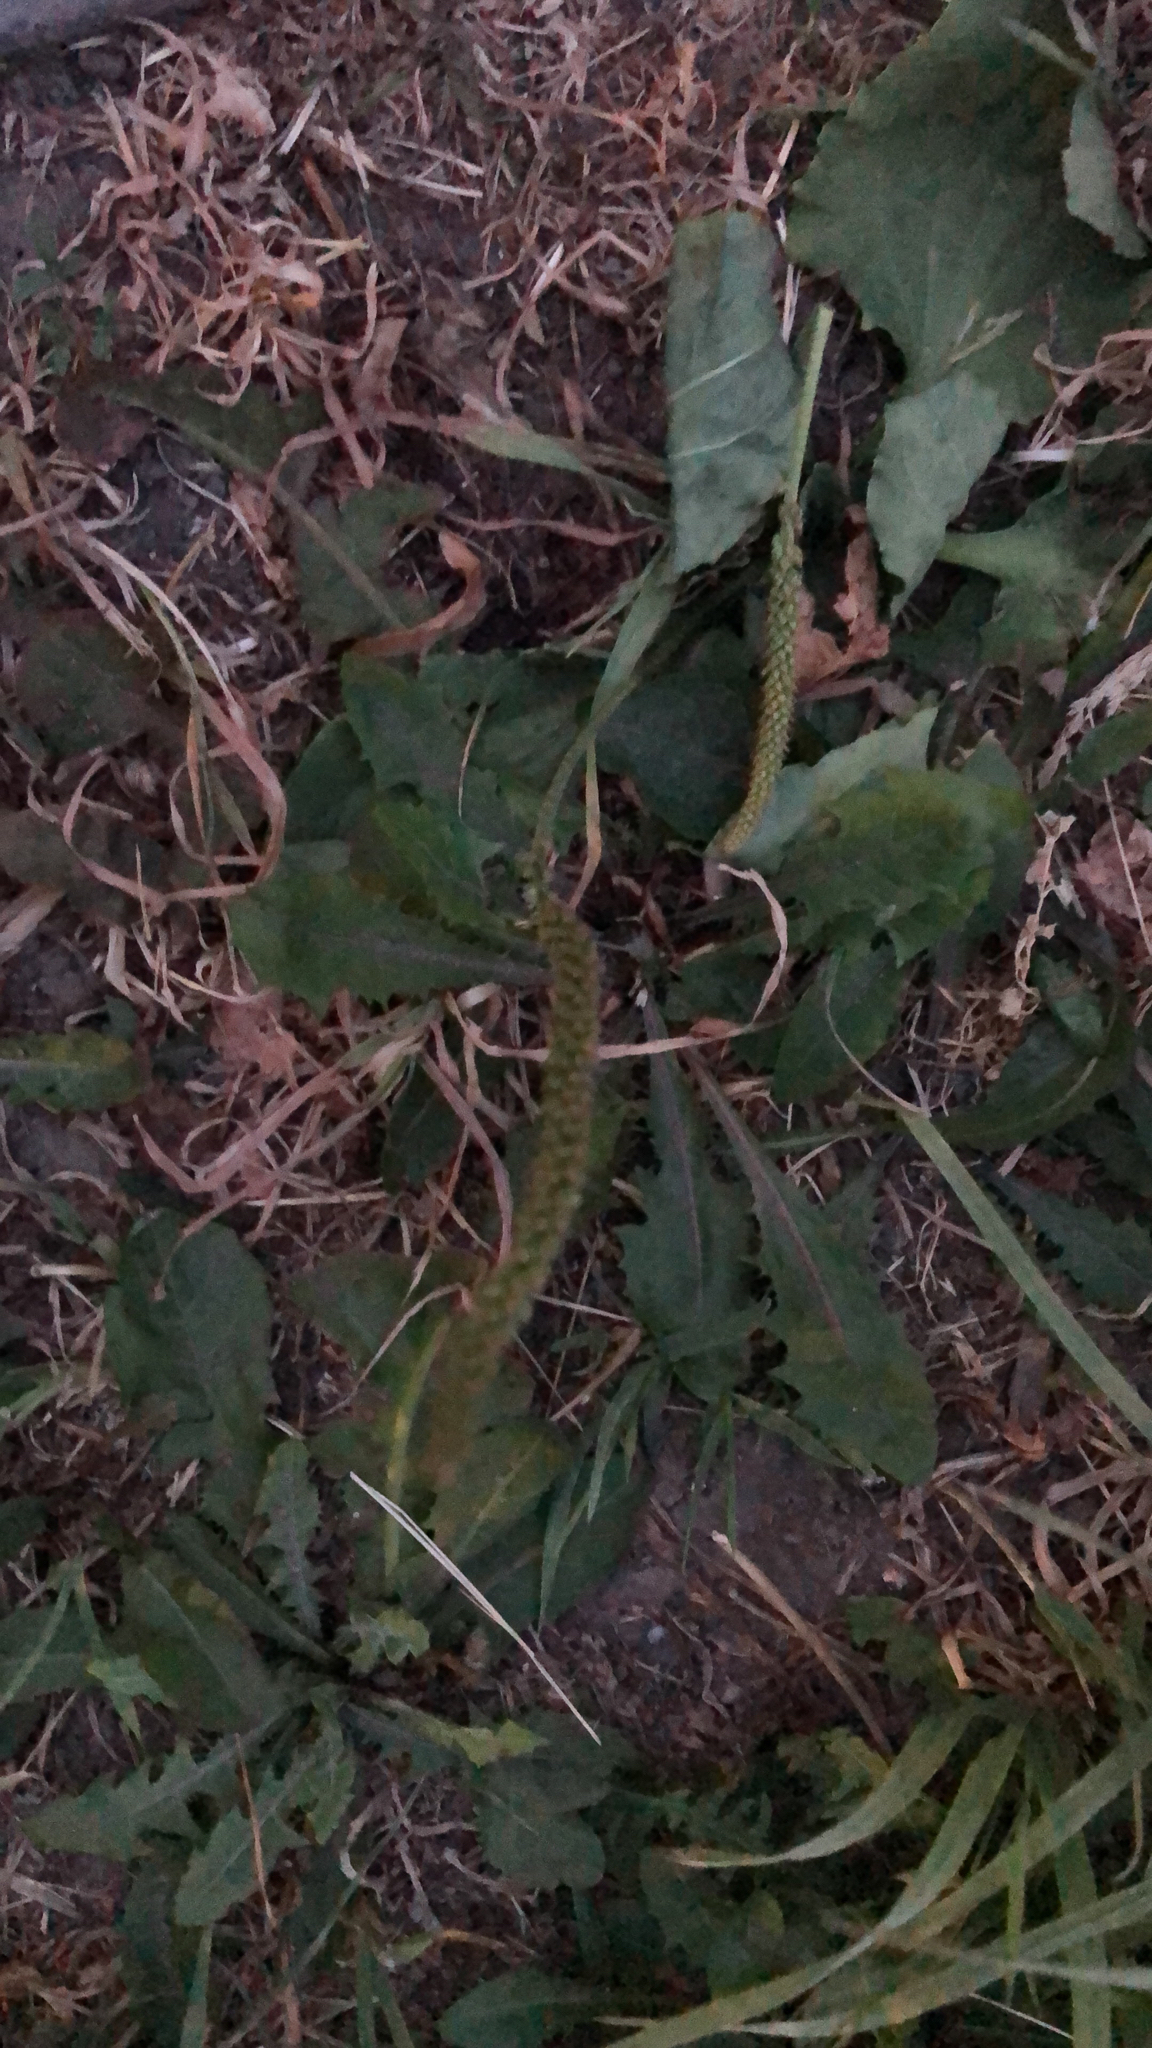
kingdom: Plantae
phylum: Tracheophyta
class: Magnoliopsida
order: Lamiales
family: Plantaginaceae
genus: Plantago
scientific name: Plantago major
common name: Common plantain
